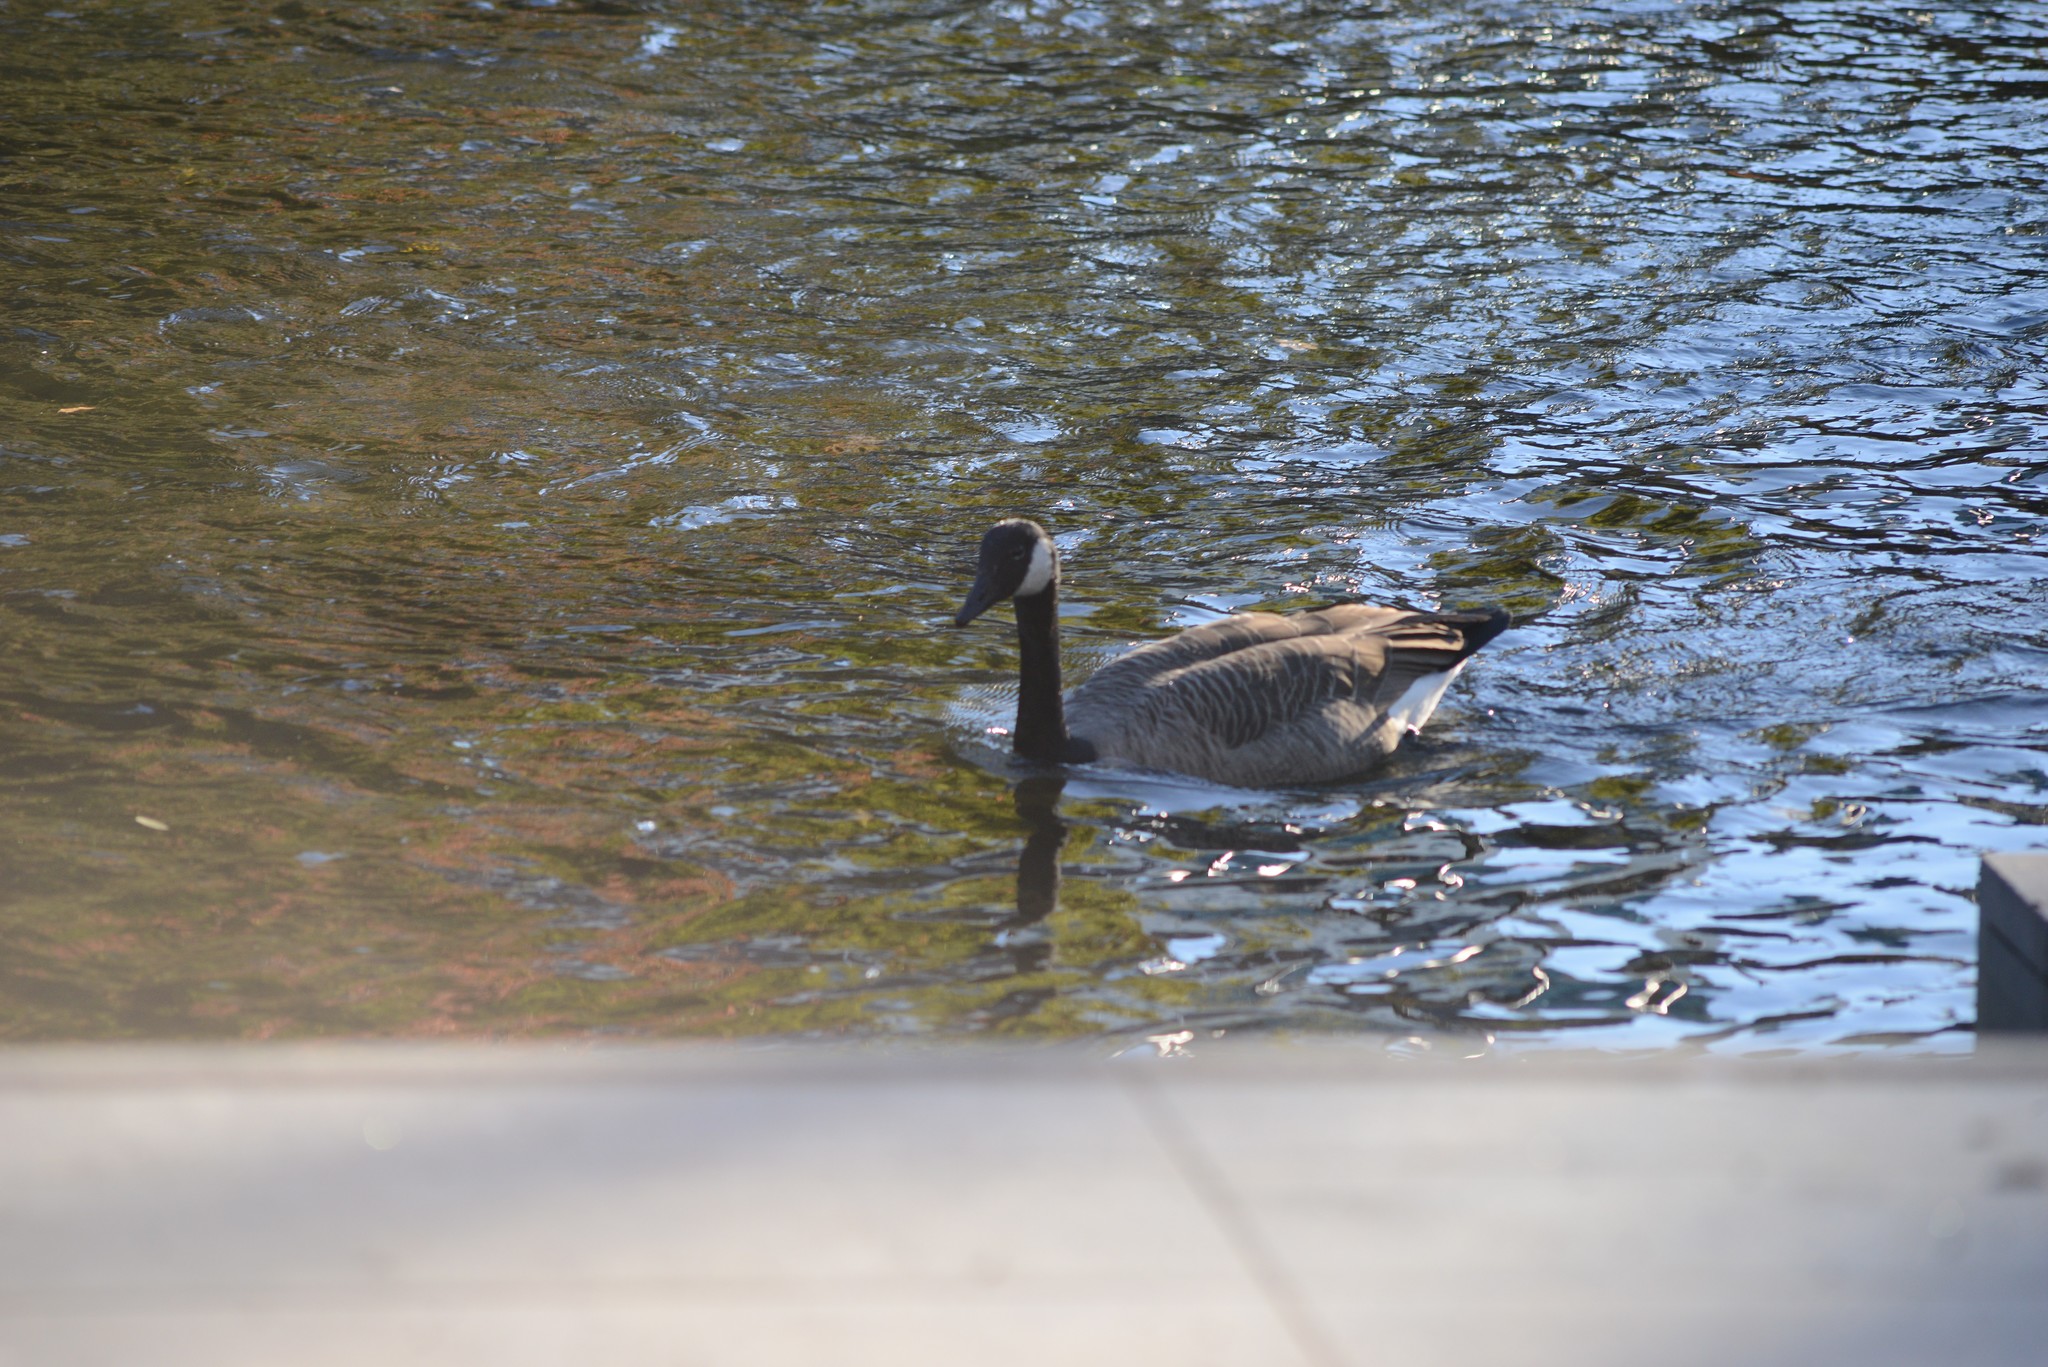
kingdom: Animalia
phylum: Chordata
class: Aves
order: Anseriformes
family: Anatidae
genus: Branta
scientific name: Branta canadensis
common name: Canada goose
